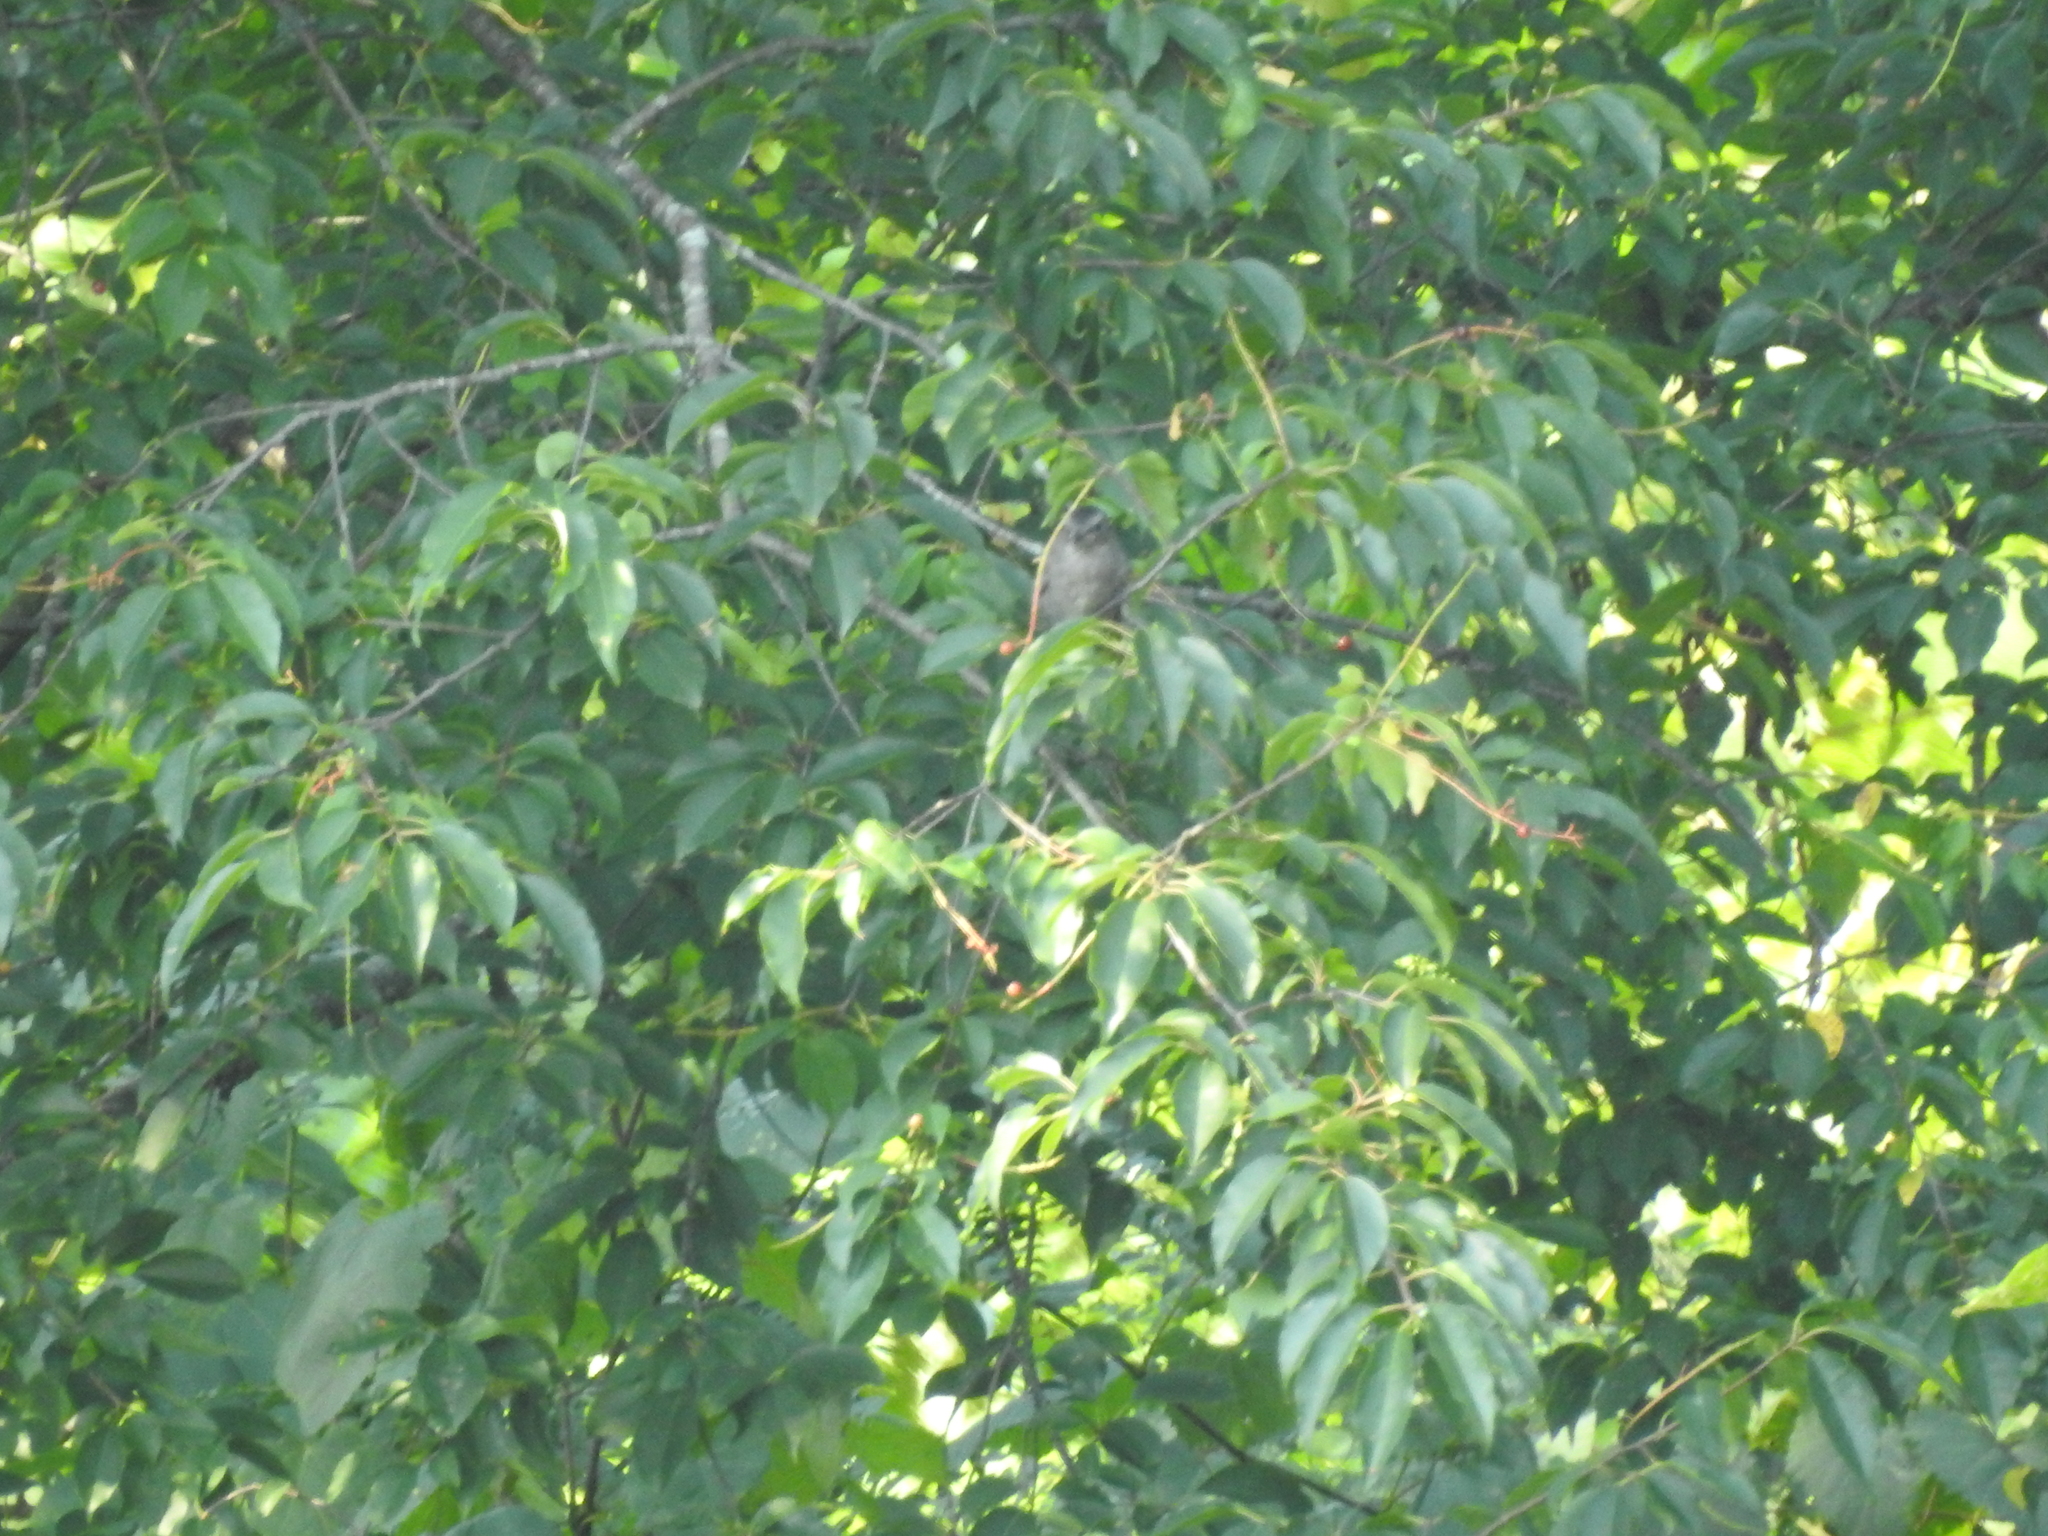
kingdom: Animalia
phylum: Chordata
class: Aves
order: Passeriformes
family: Mimidae
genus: Dumetella
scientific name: Dumetella carolinensis
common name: Gray catbird
